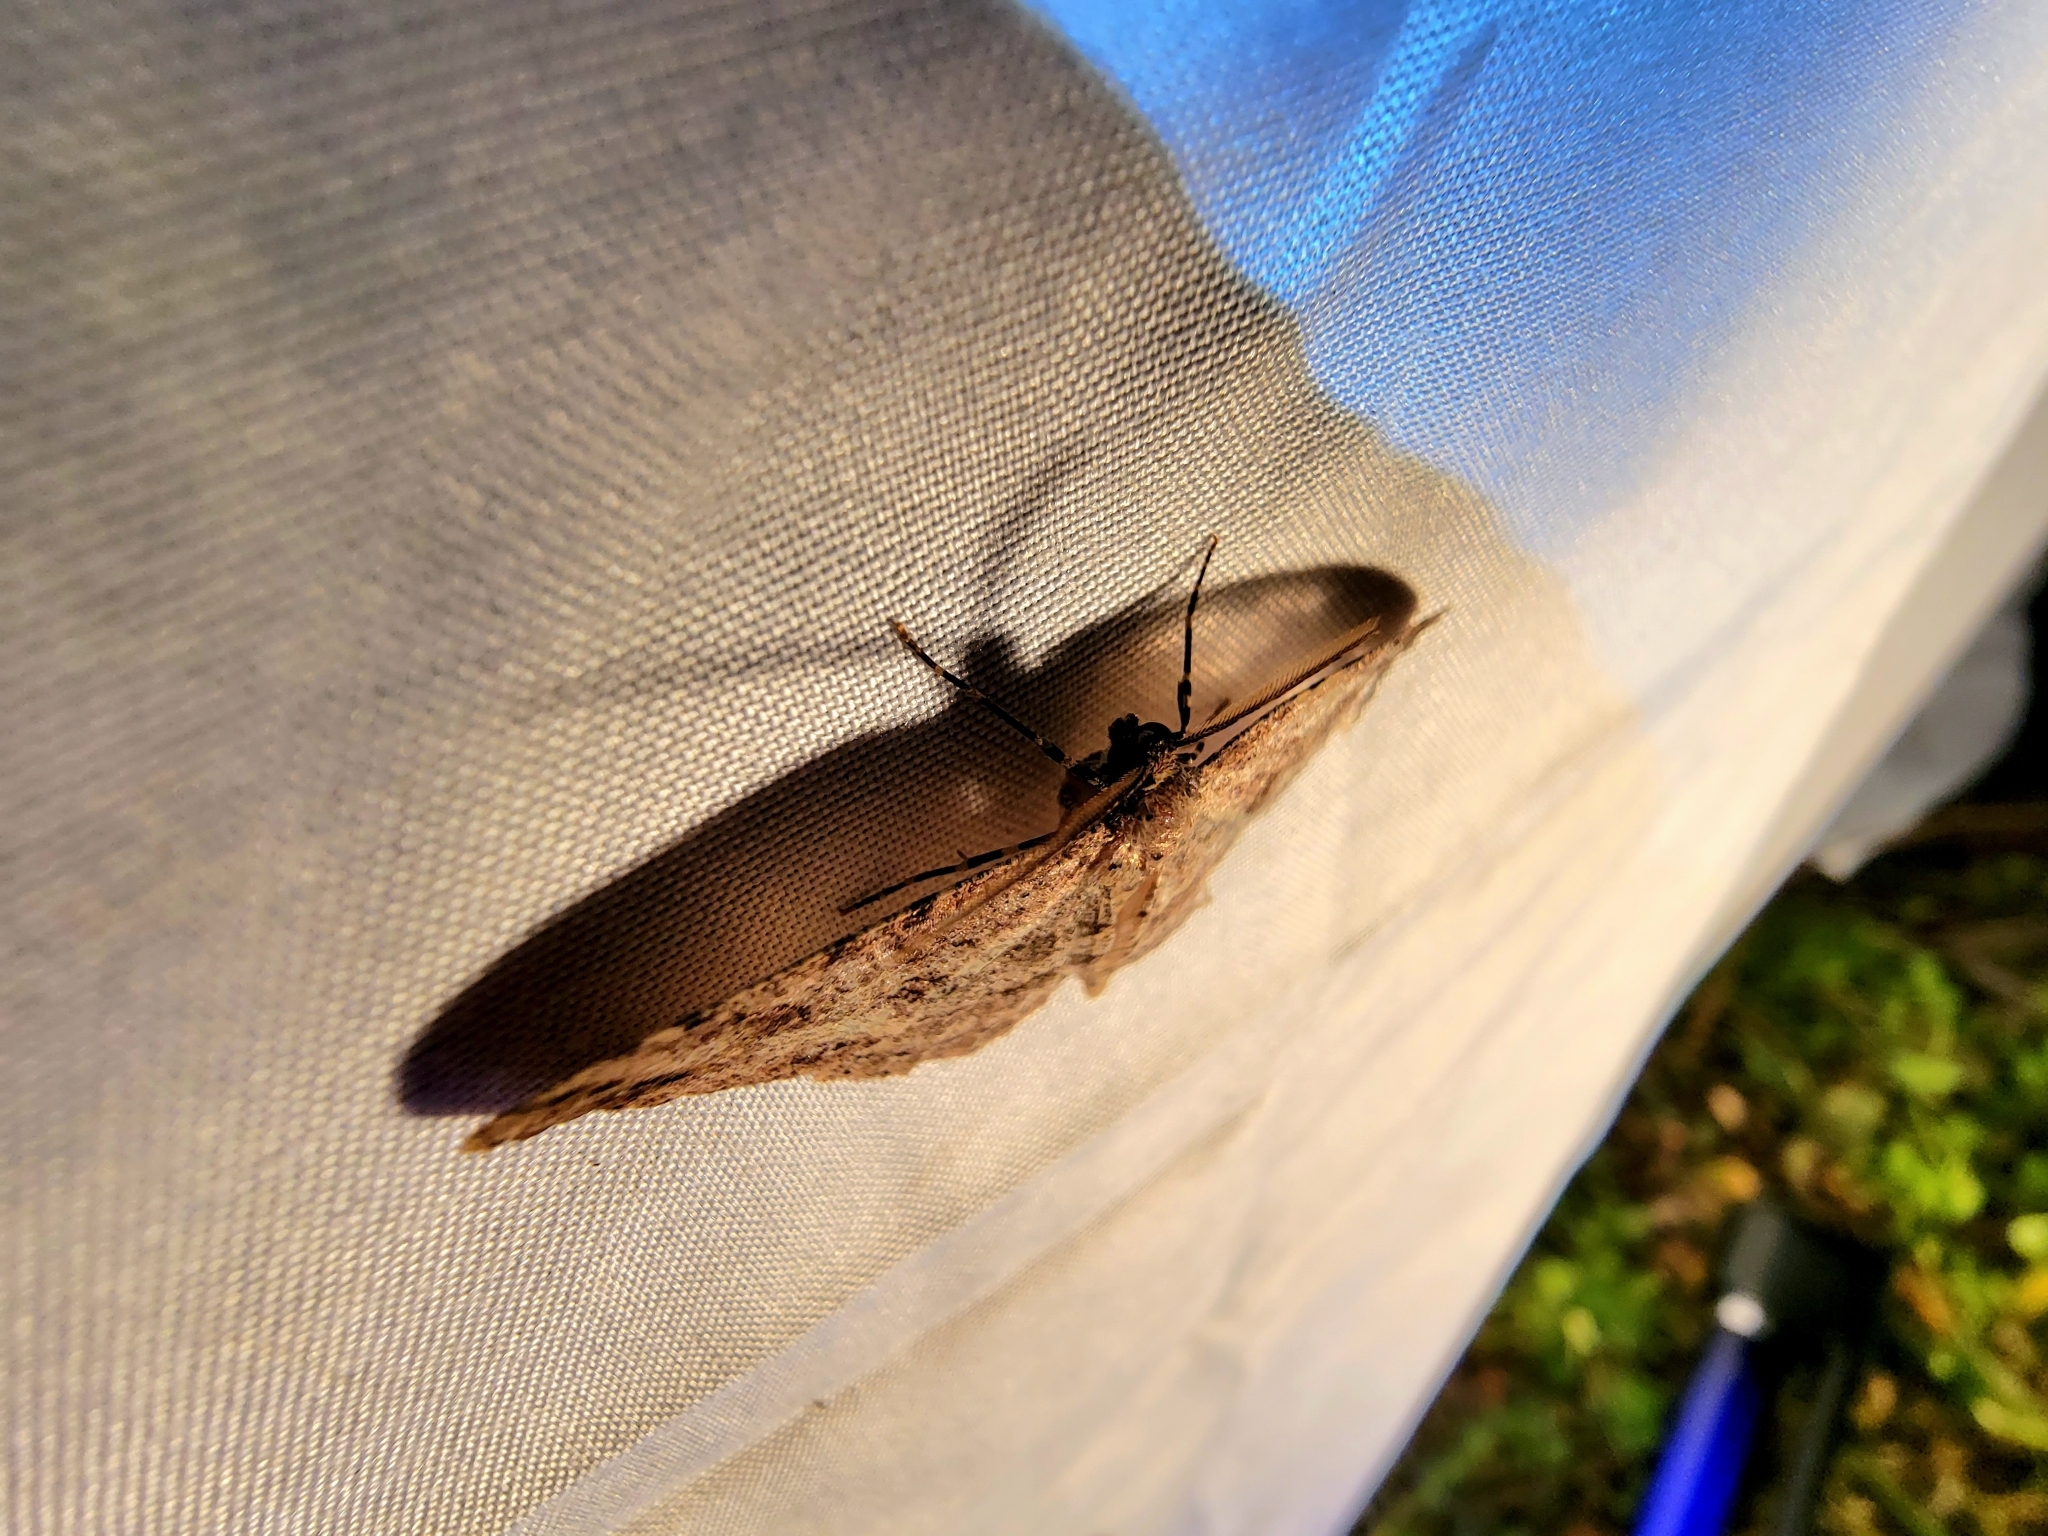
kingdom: Animalia
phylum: Arthropoda
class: Insecta
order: Lepidoptera
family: Geometridae
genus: Melanolophia
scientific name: Melanolophia canadaria
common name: Canadian melanolophia
